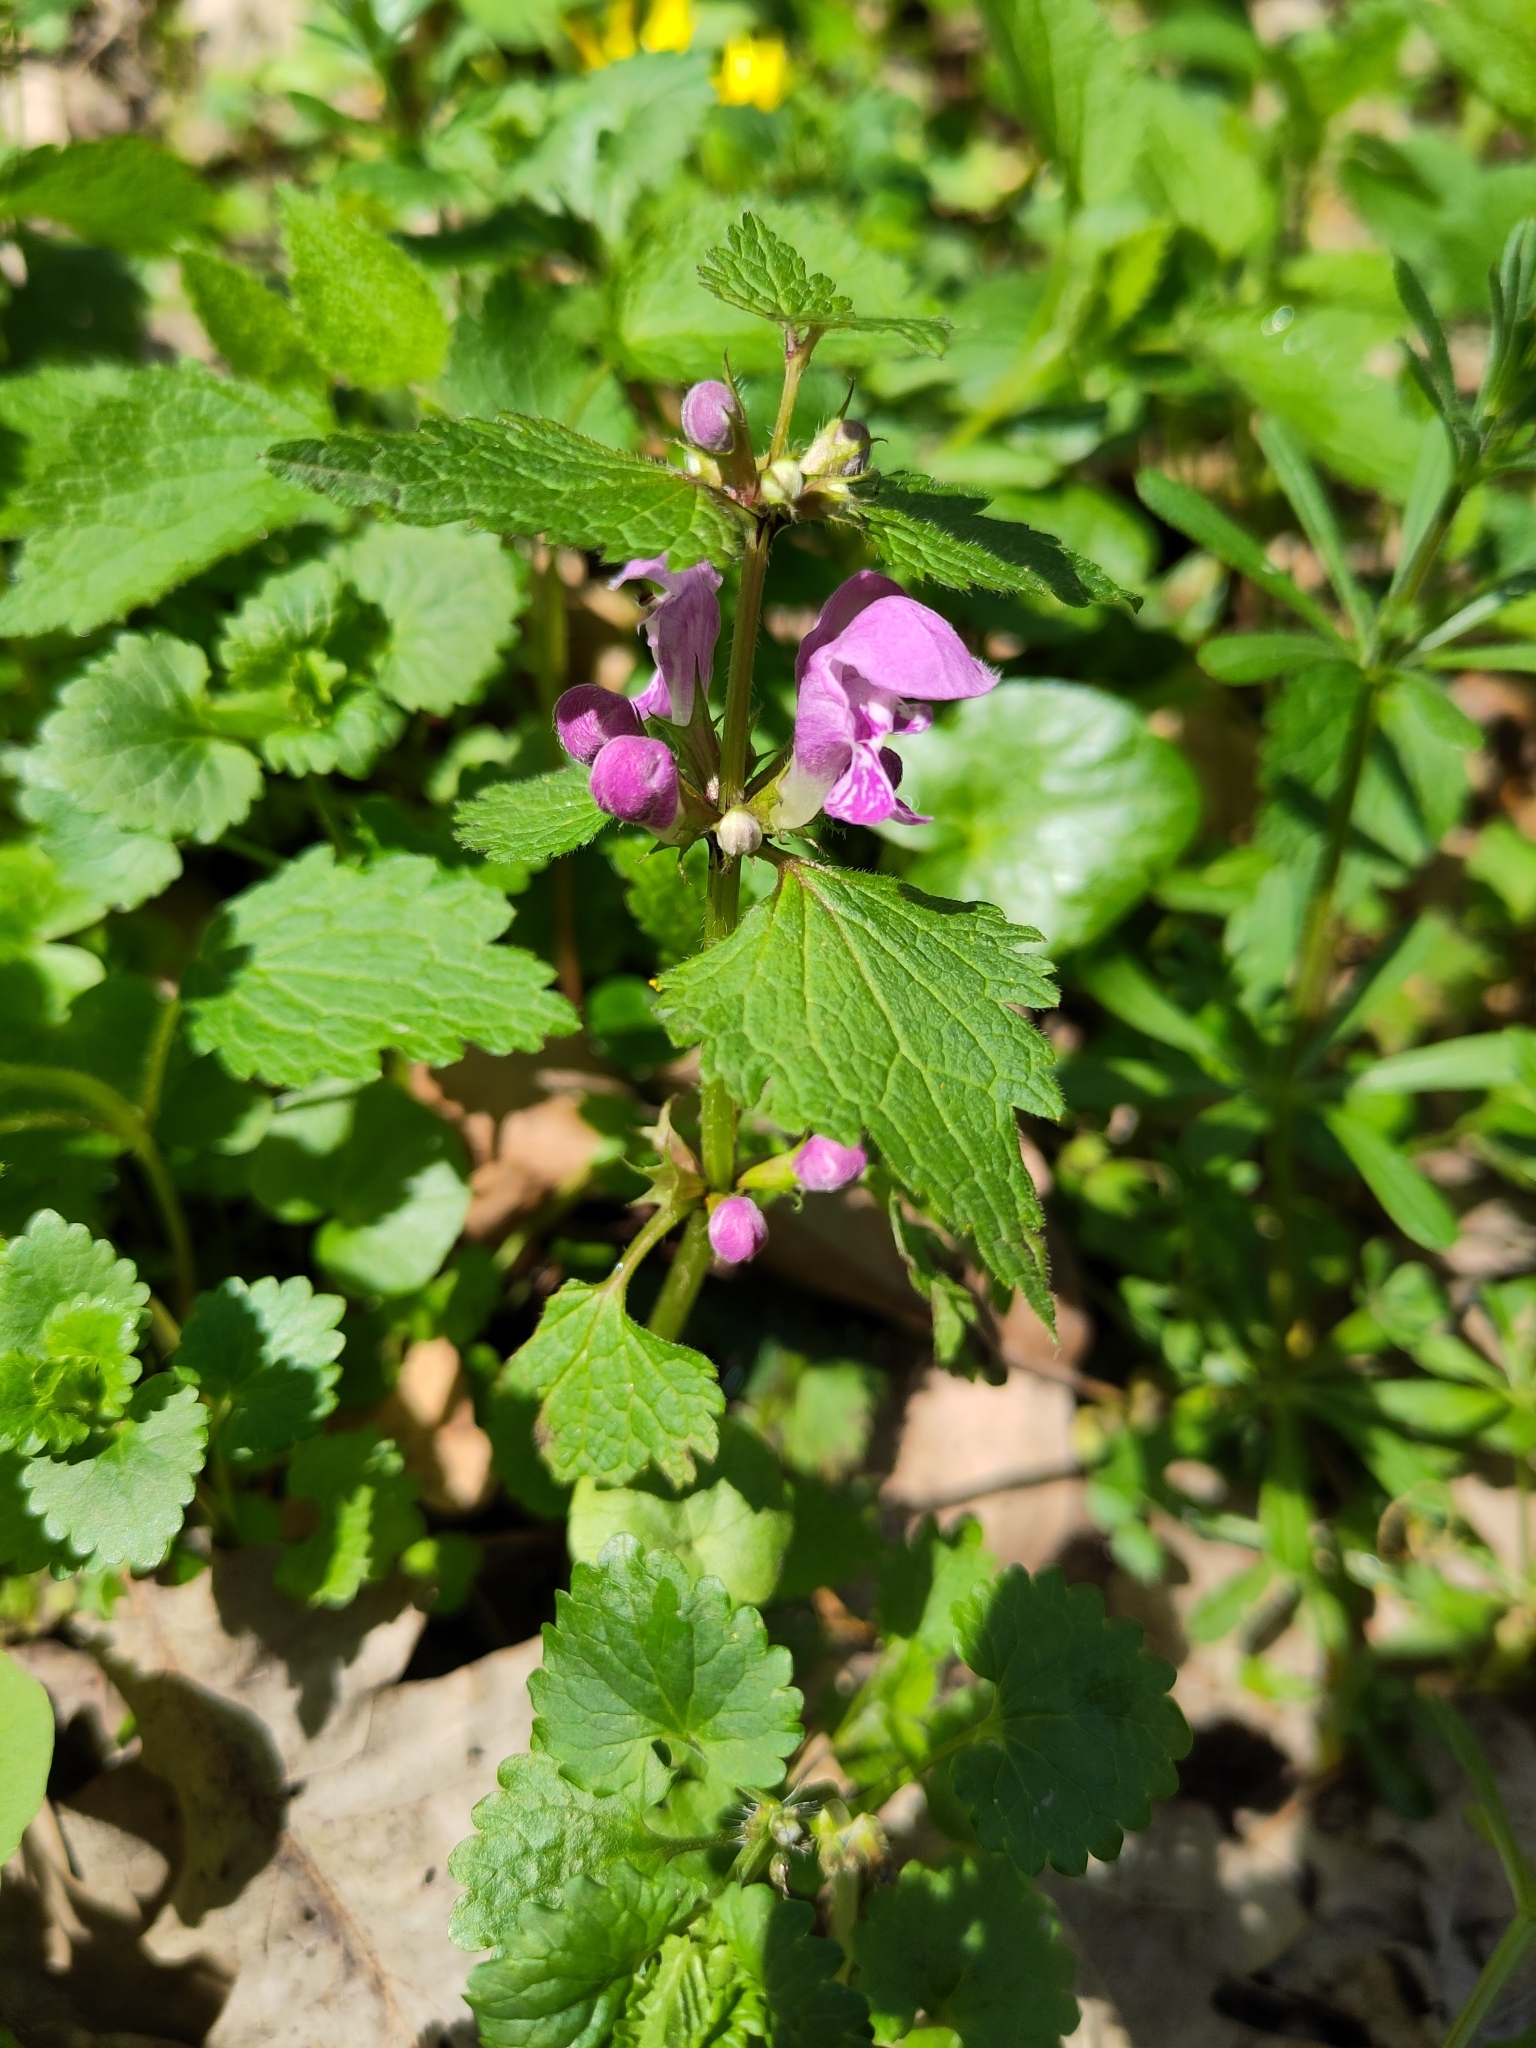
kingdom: Plantae
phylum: Tracheophyta
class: Magnoliopsida
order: Lamiales
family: Lamiaceae
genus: Lamium
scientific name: Lamium maculatum
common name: Spotted dead-nettle
